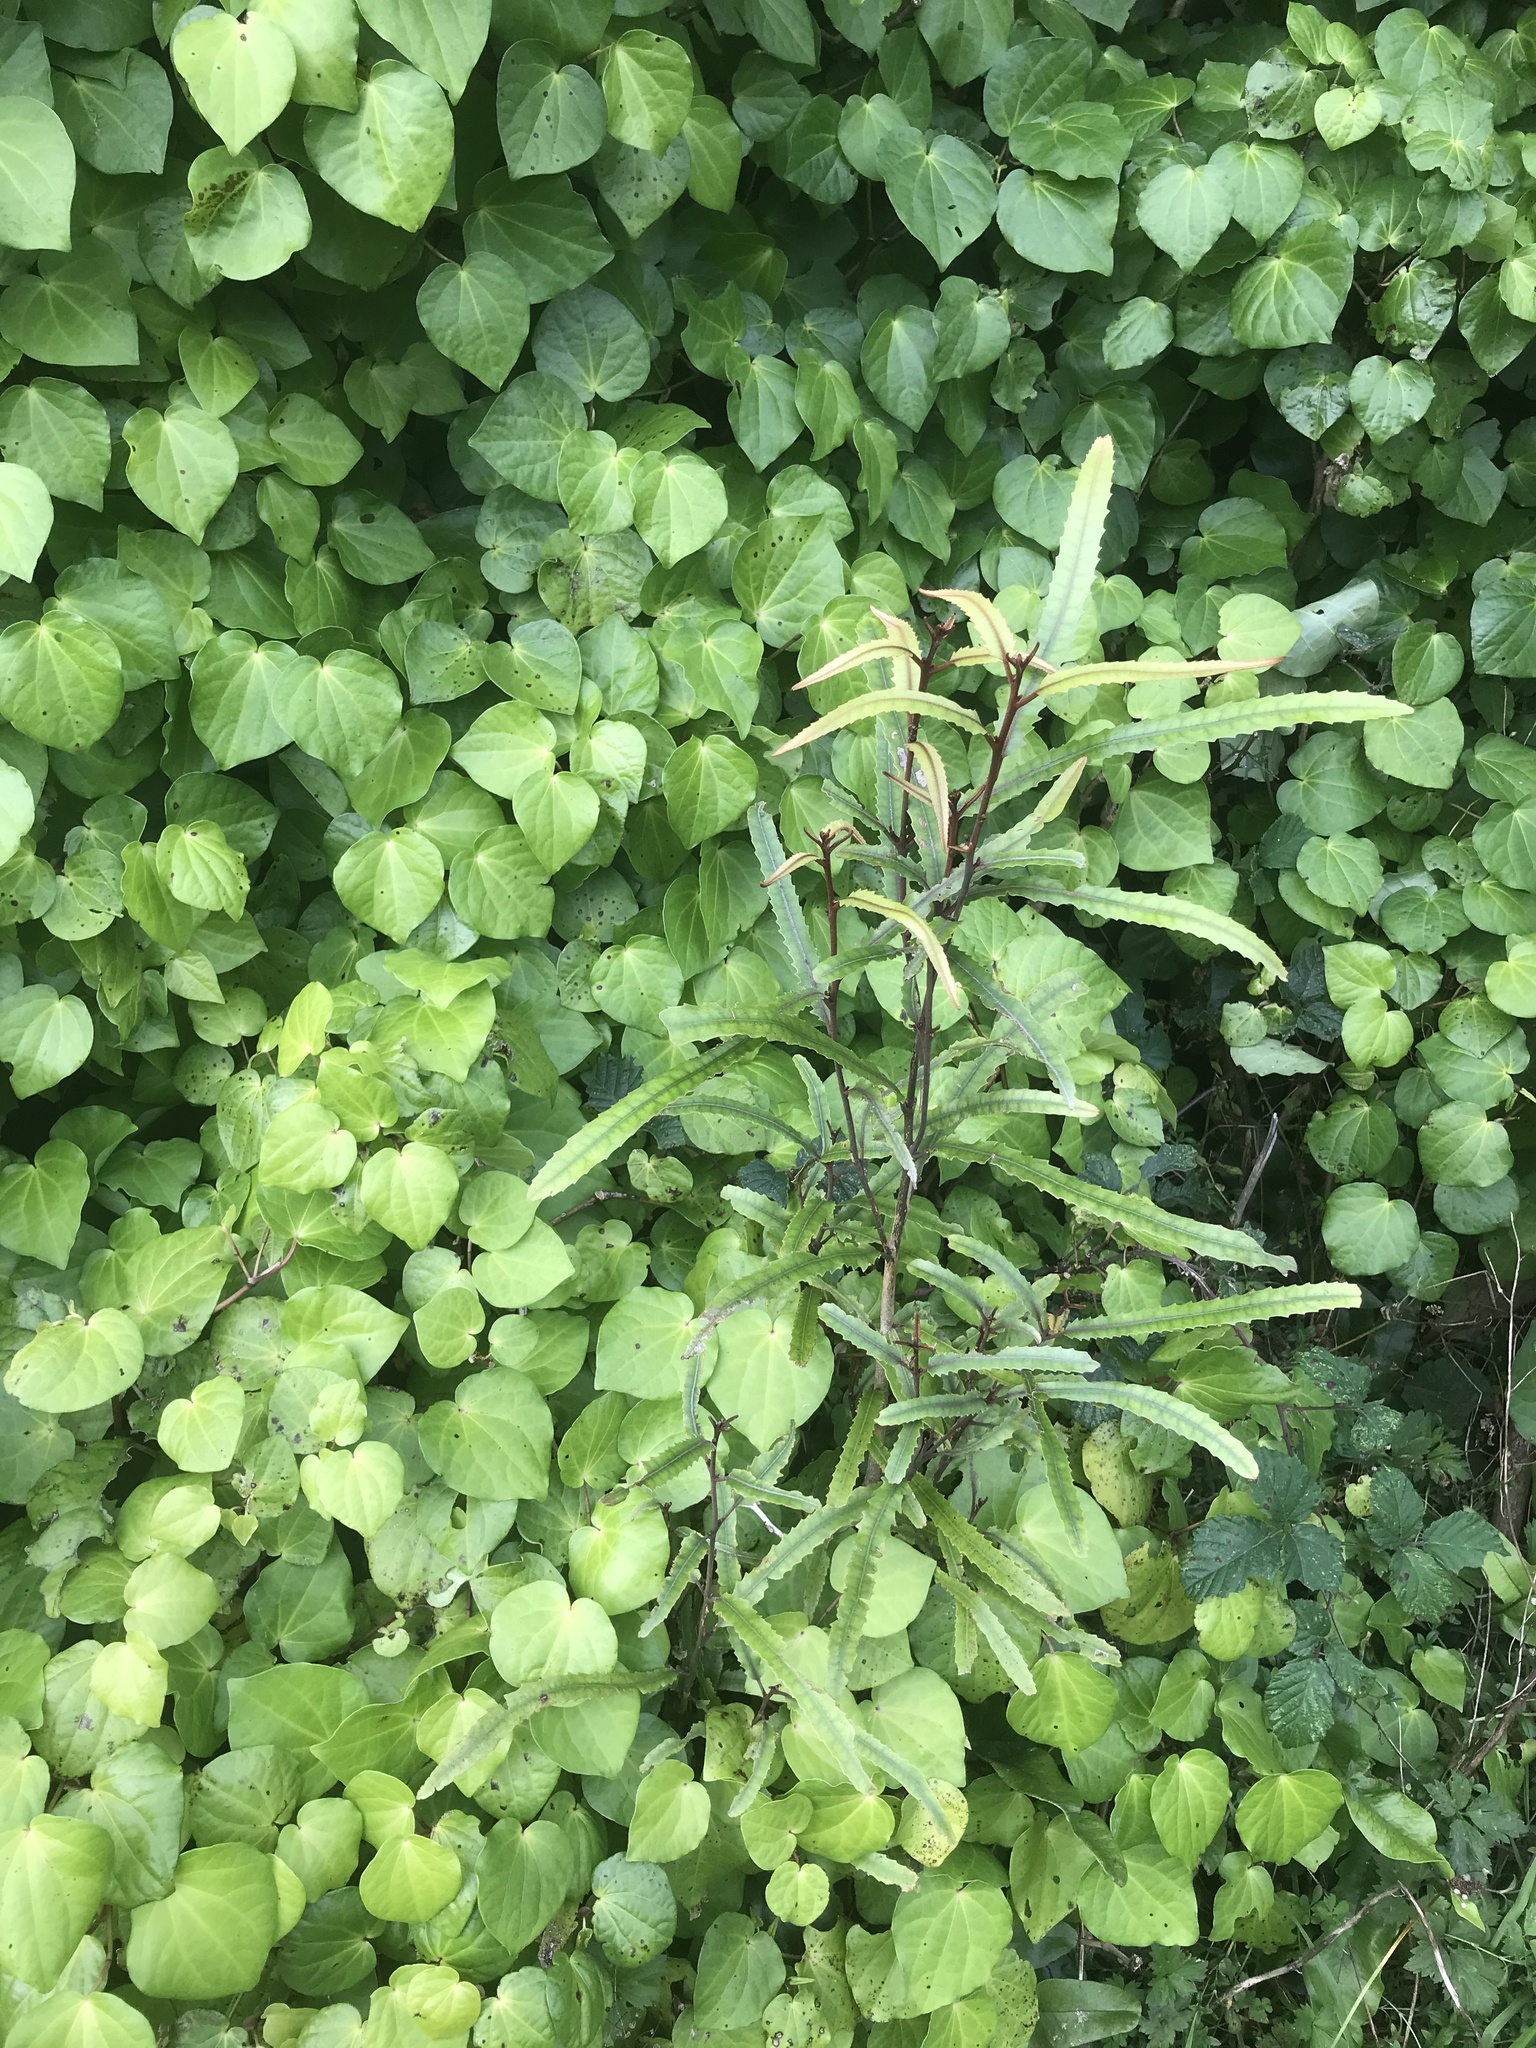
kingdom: Plantae
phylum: Tracheophyta
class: Magnoliopsida
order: Proteales
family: Proteaceae
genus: Knightia
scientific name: Knightia excelsa
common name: New zealand-honeysuckle
